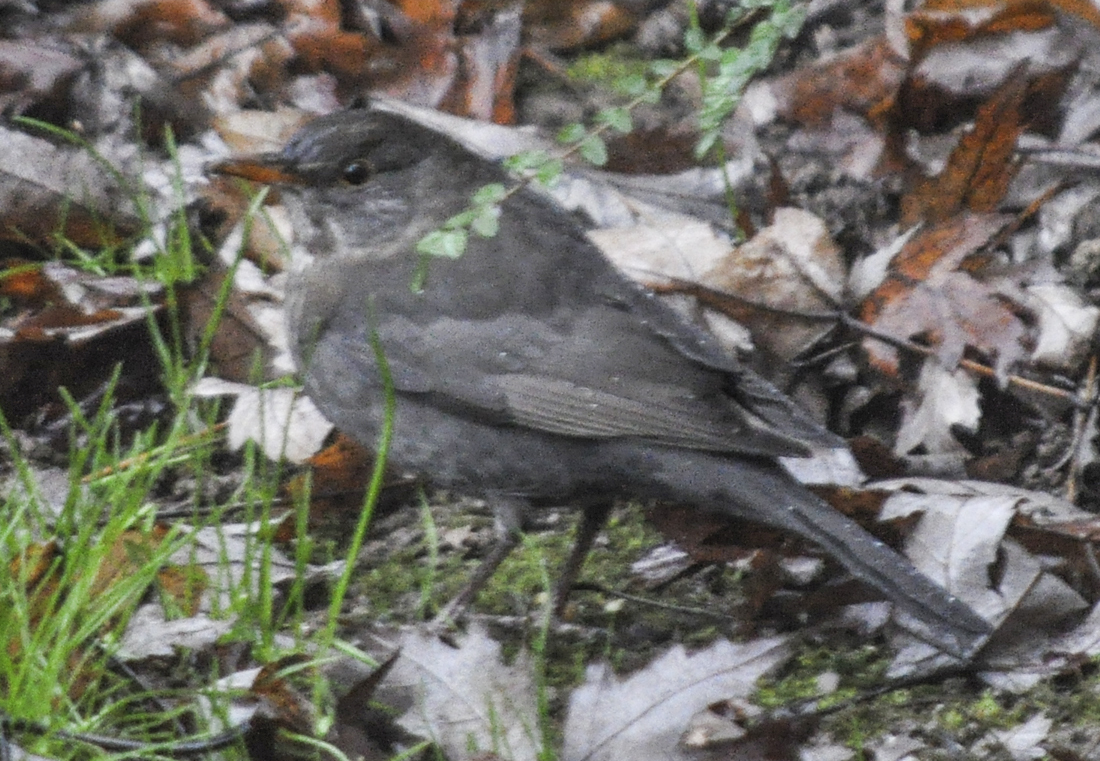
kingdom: Animalia
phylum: Chordata
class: Aves
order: Passeriformes
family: Turdidae
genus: Turdus
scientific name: Turdus merula
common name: Common blackbird
